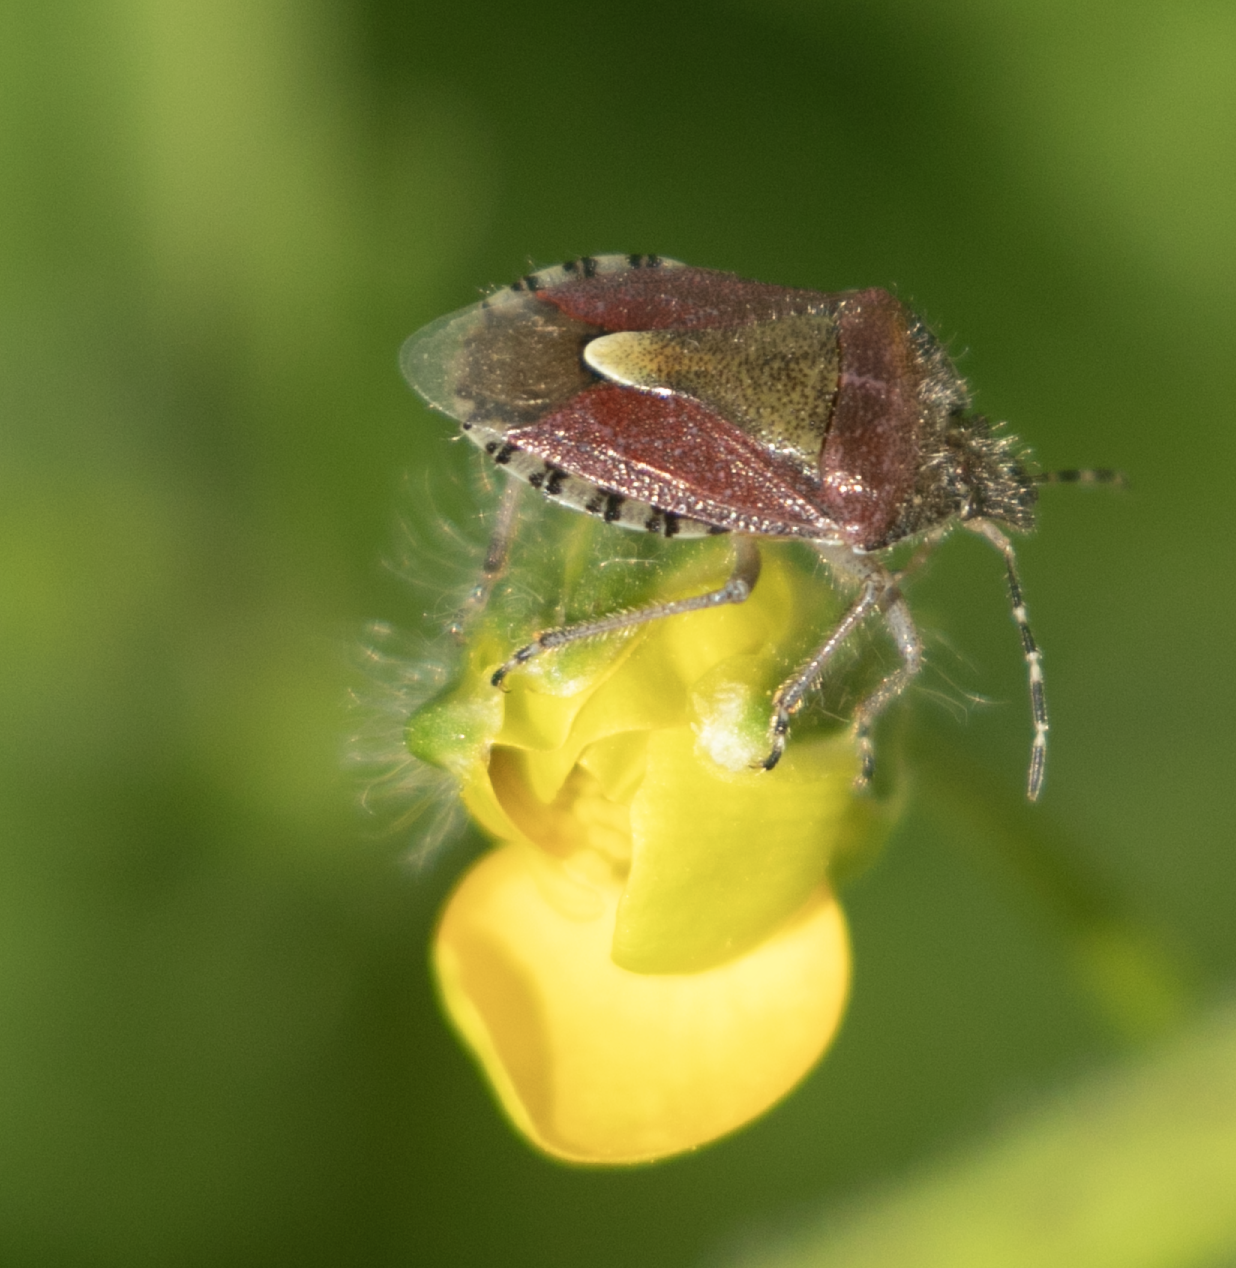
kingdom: Animalia
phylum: Arthropoda
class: Insecta
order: Hemiptera
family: Pentatomidae
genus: Dolycoris
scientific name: Dolycoris baccarum
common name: Sloe bug
